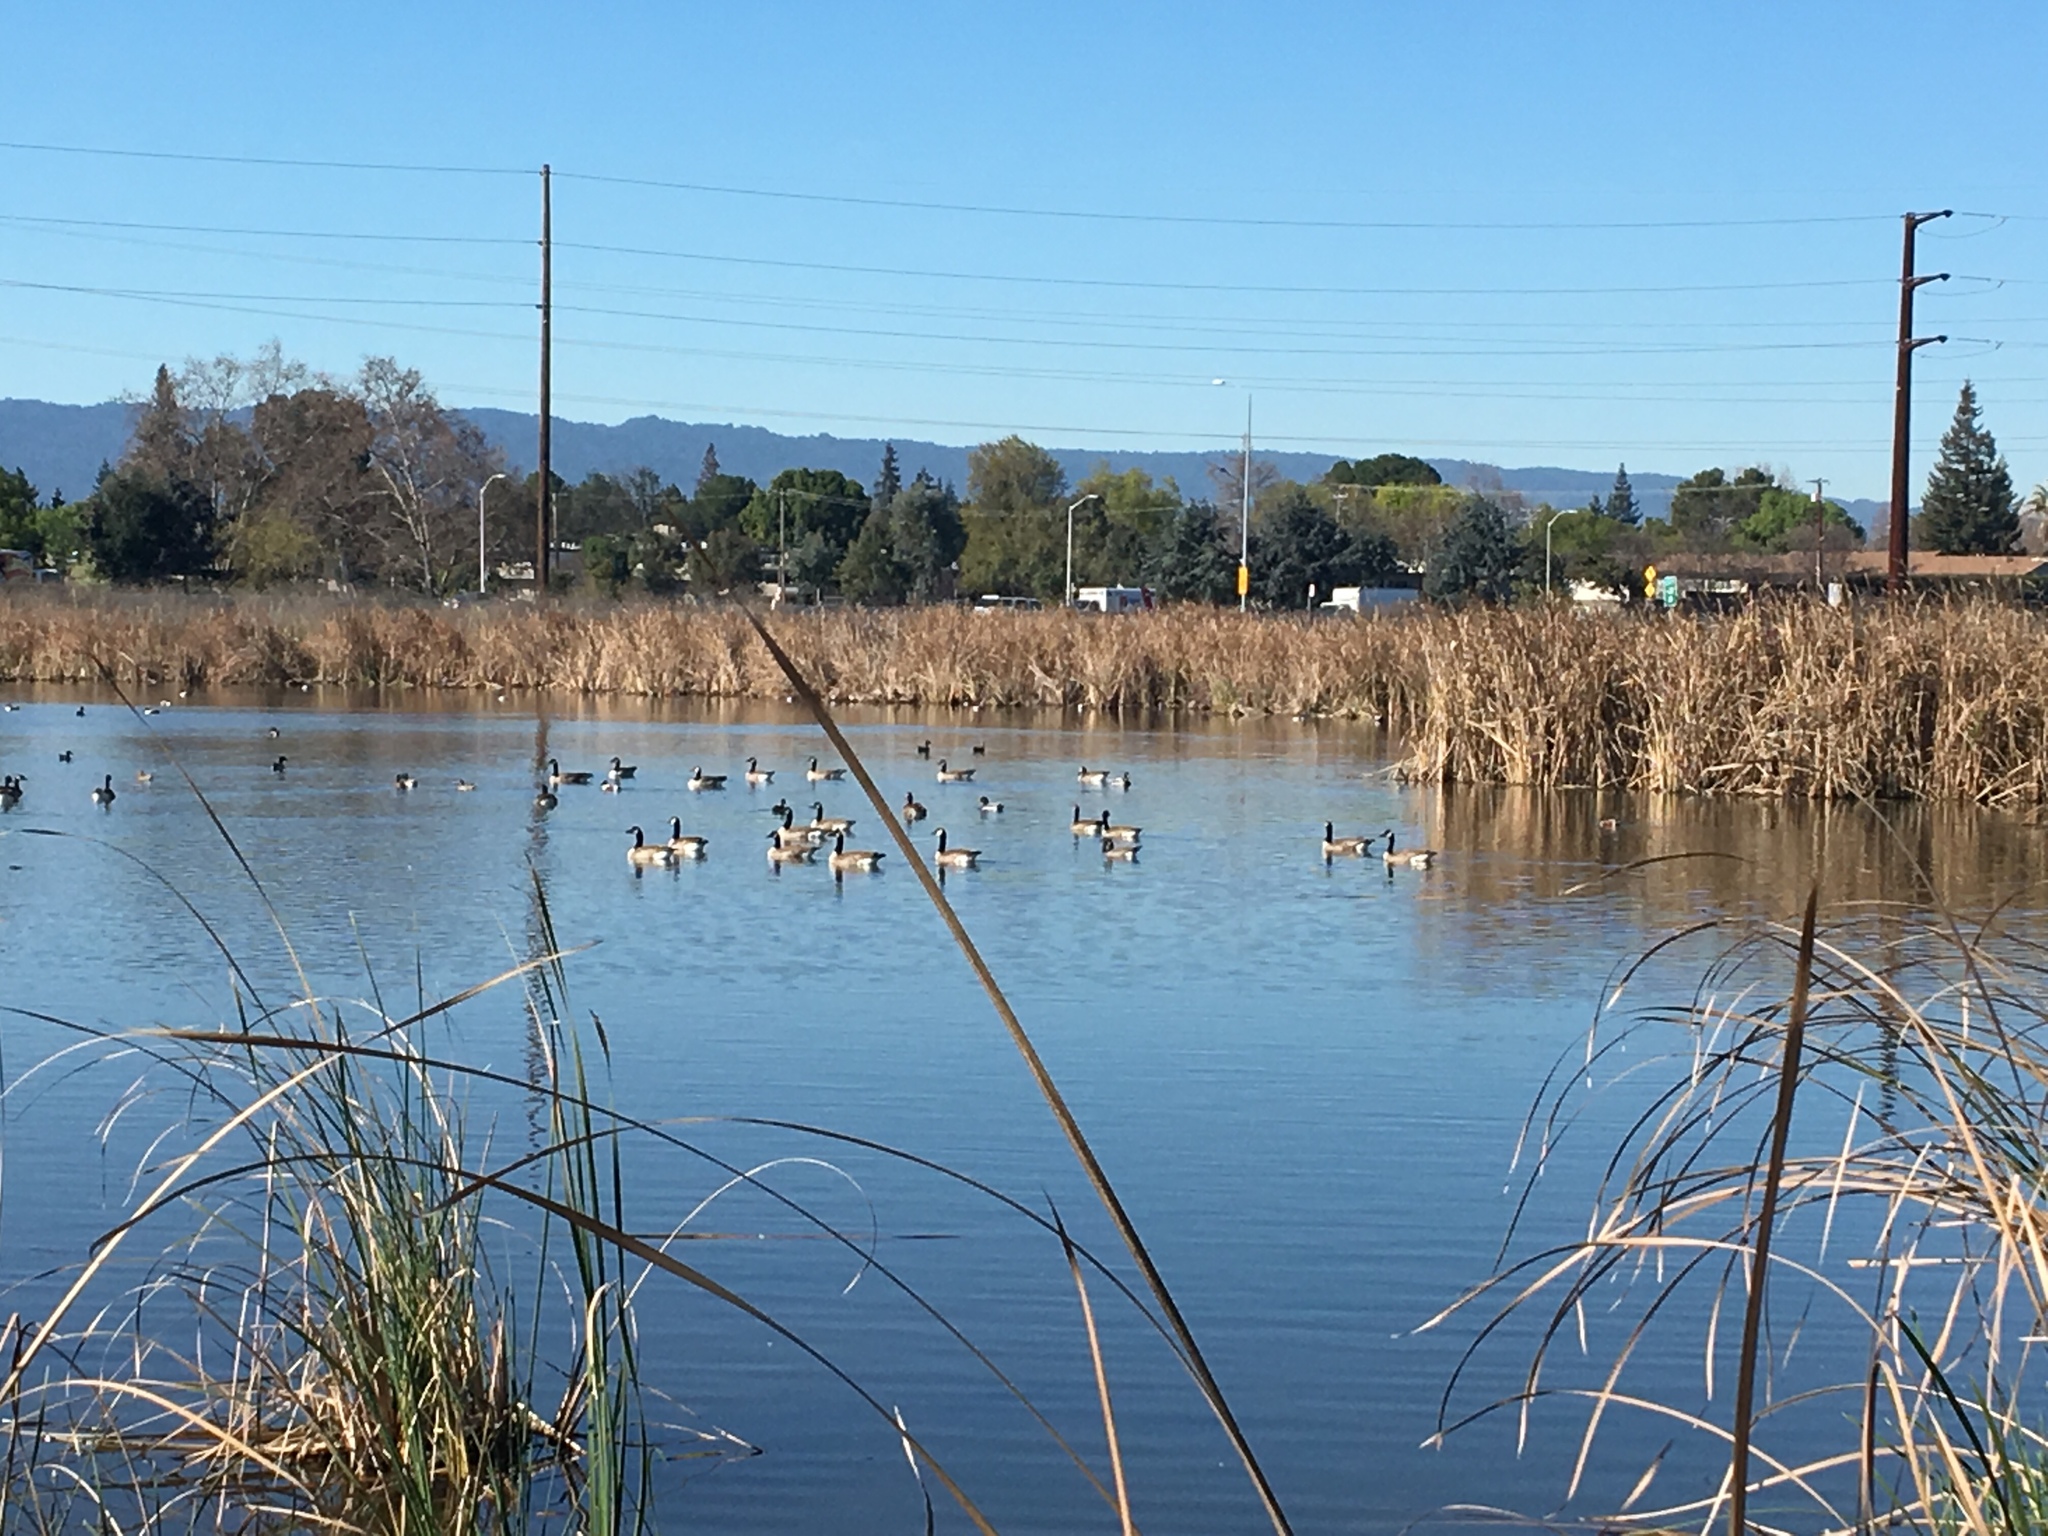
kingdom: Animalia
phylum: Chordata
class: Aves
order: Anseriformes
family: Anatidae
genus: Branta
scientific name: Branta canadensis
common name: Canada goose
